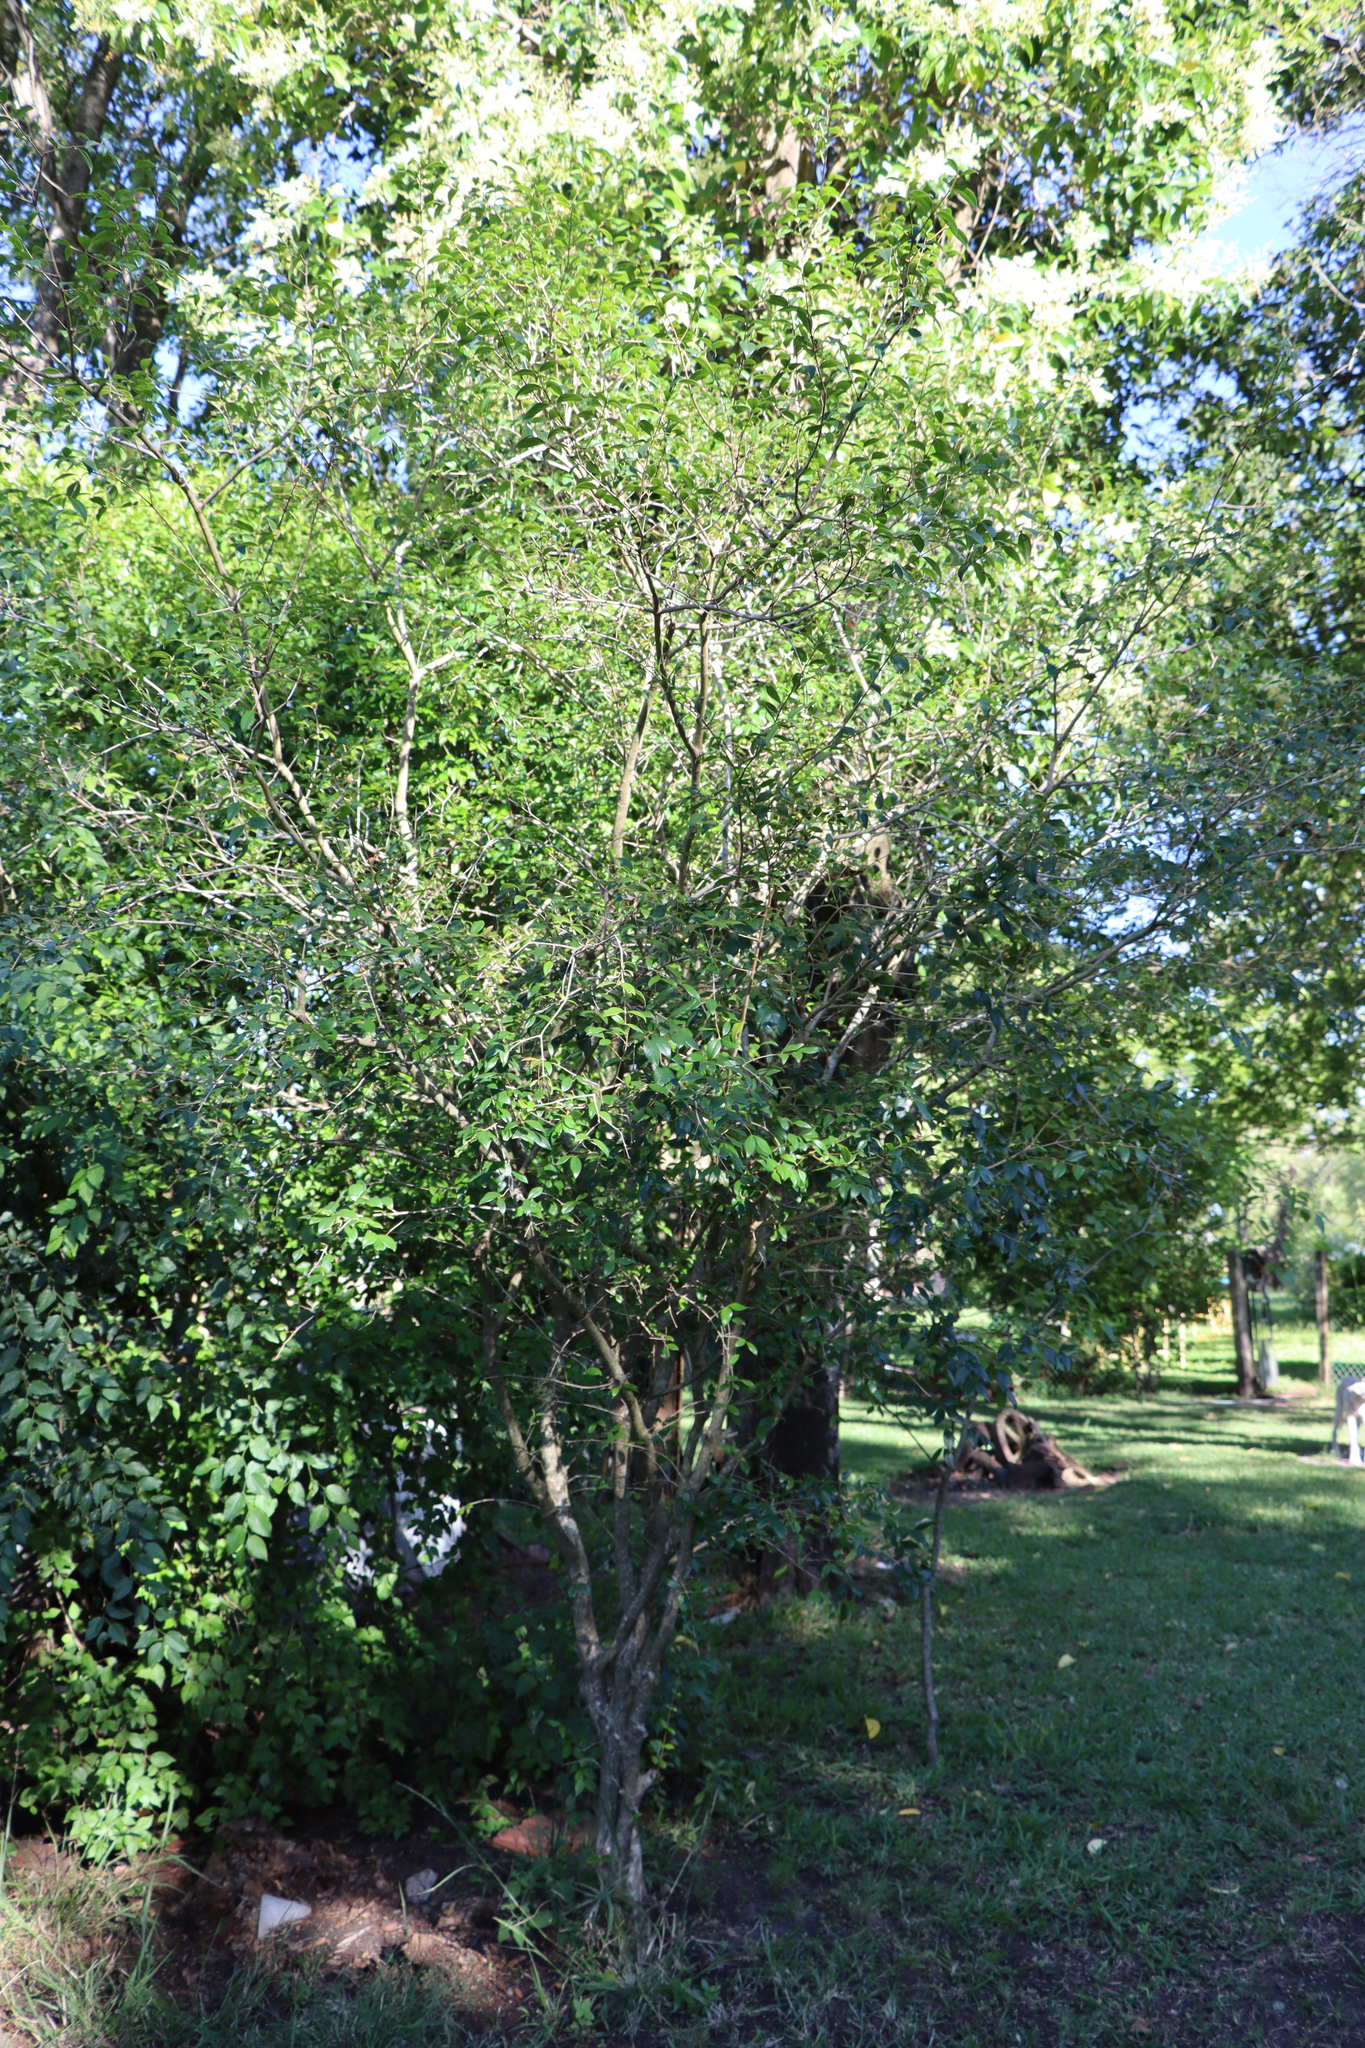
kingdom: Plantae
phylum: Tracheophyta
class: Magnoliopsida
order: Myrtales
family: Myrtaceae
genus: Eugenia
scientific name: Eugenia uniflora
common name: Surinam cherry
